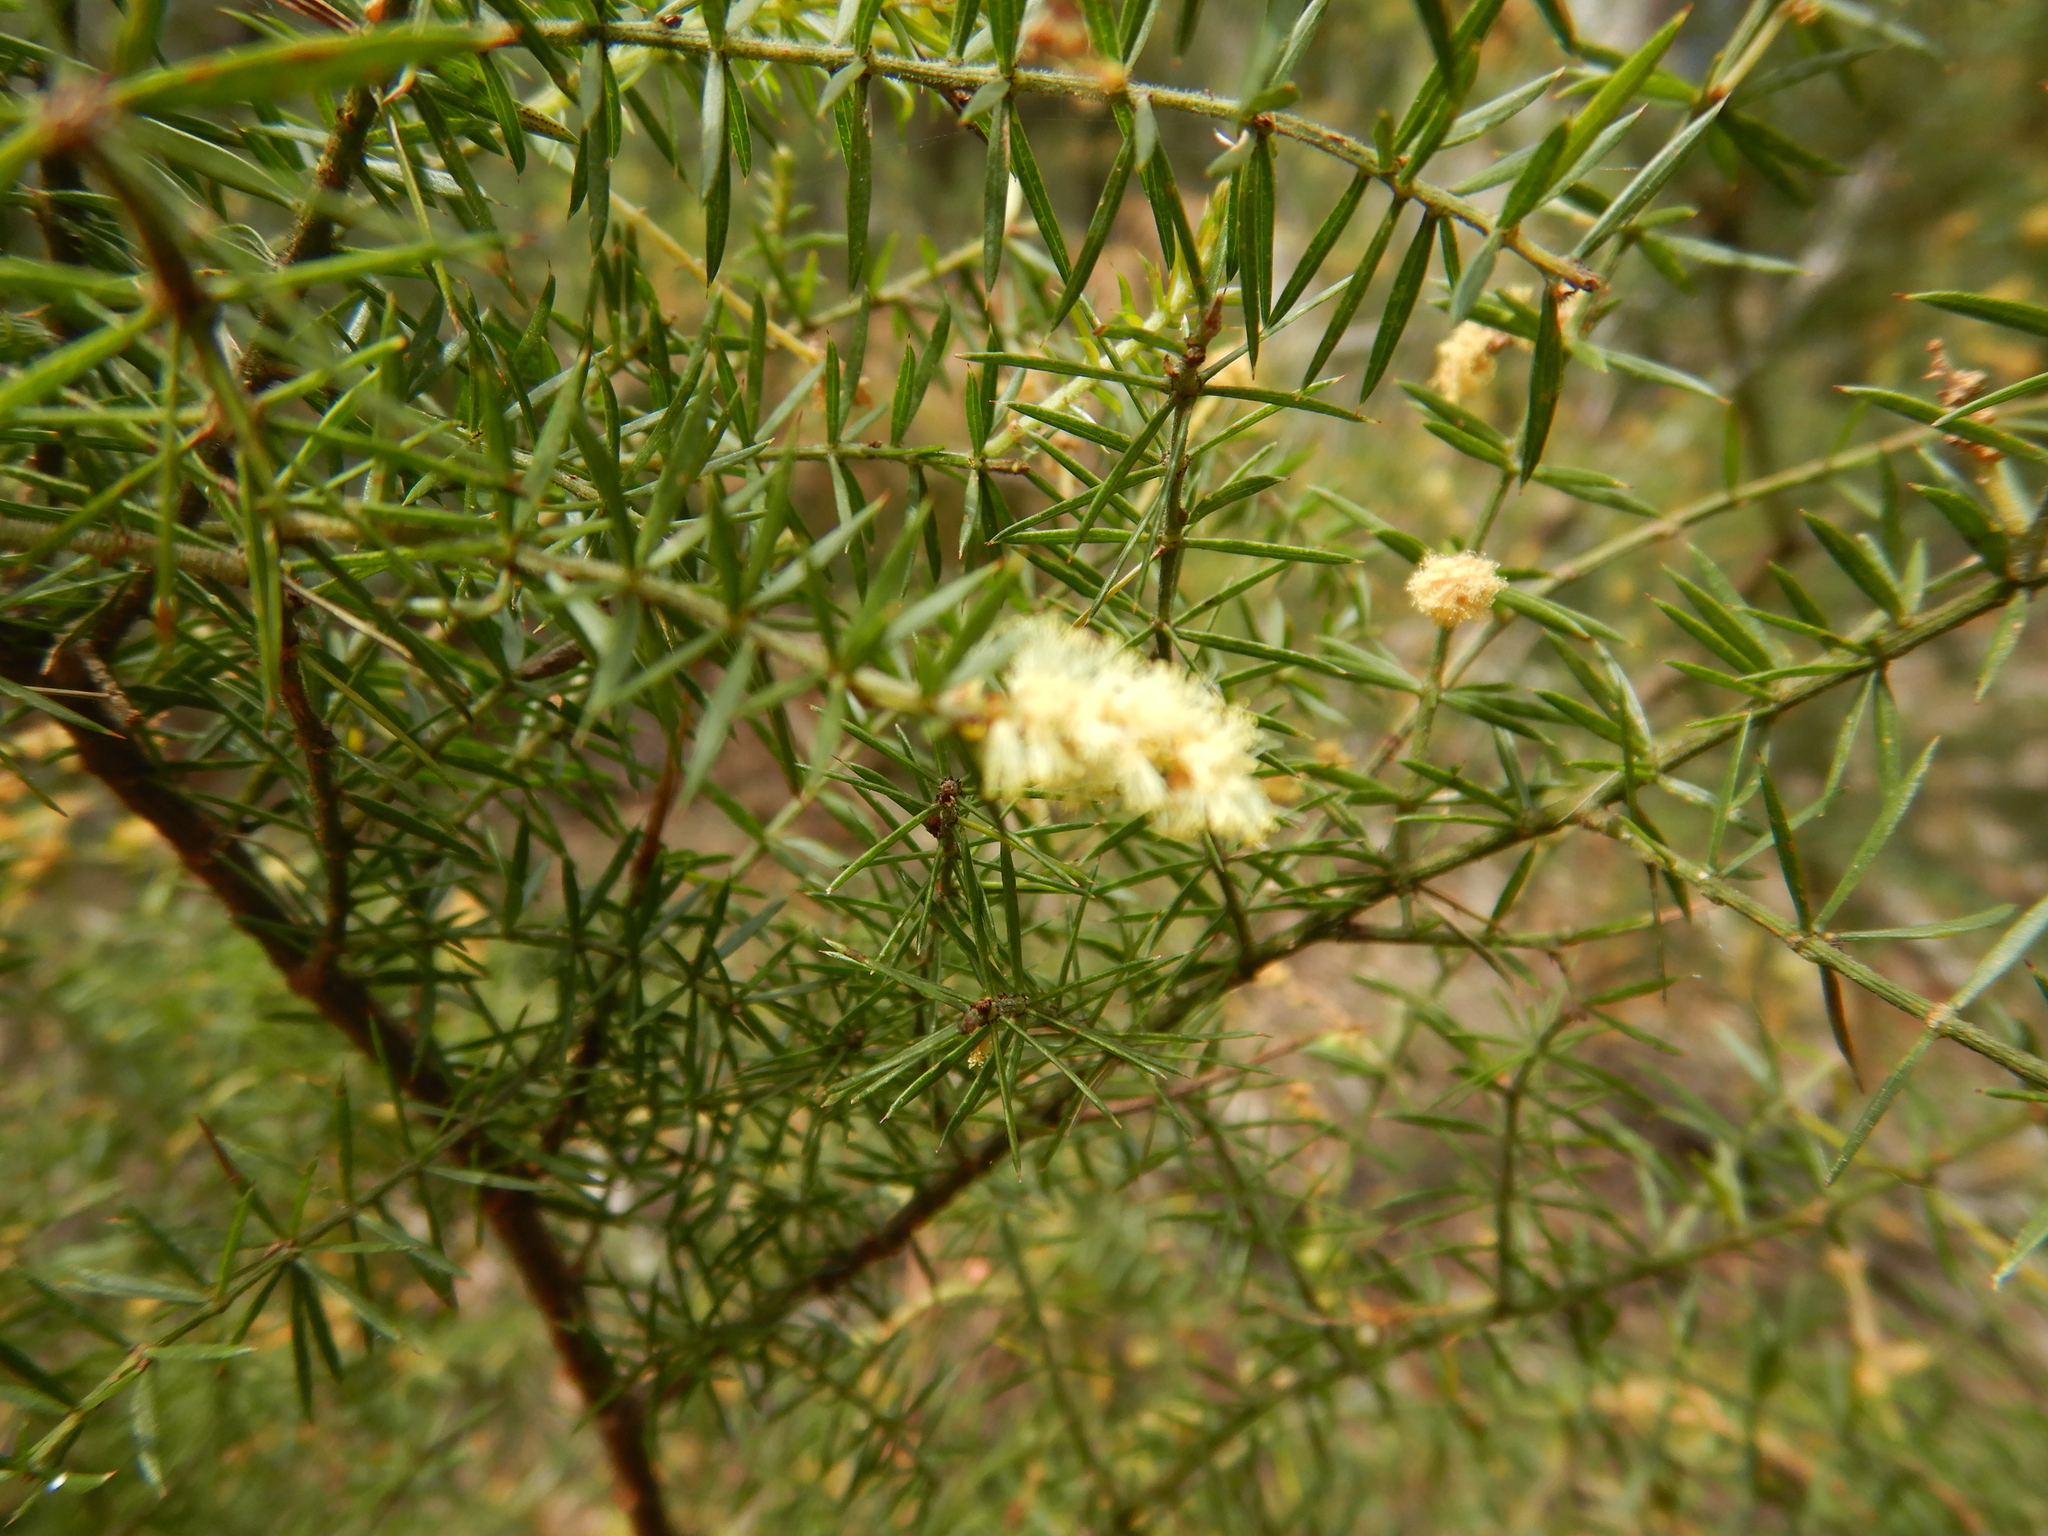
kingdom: Plantae
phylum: Tracheophyta
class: Magnoliopsida
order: Fabales
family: Fabaceae
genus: Acacia
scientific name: Acacia verticillata
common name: Prickly moses
